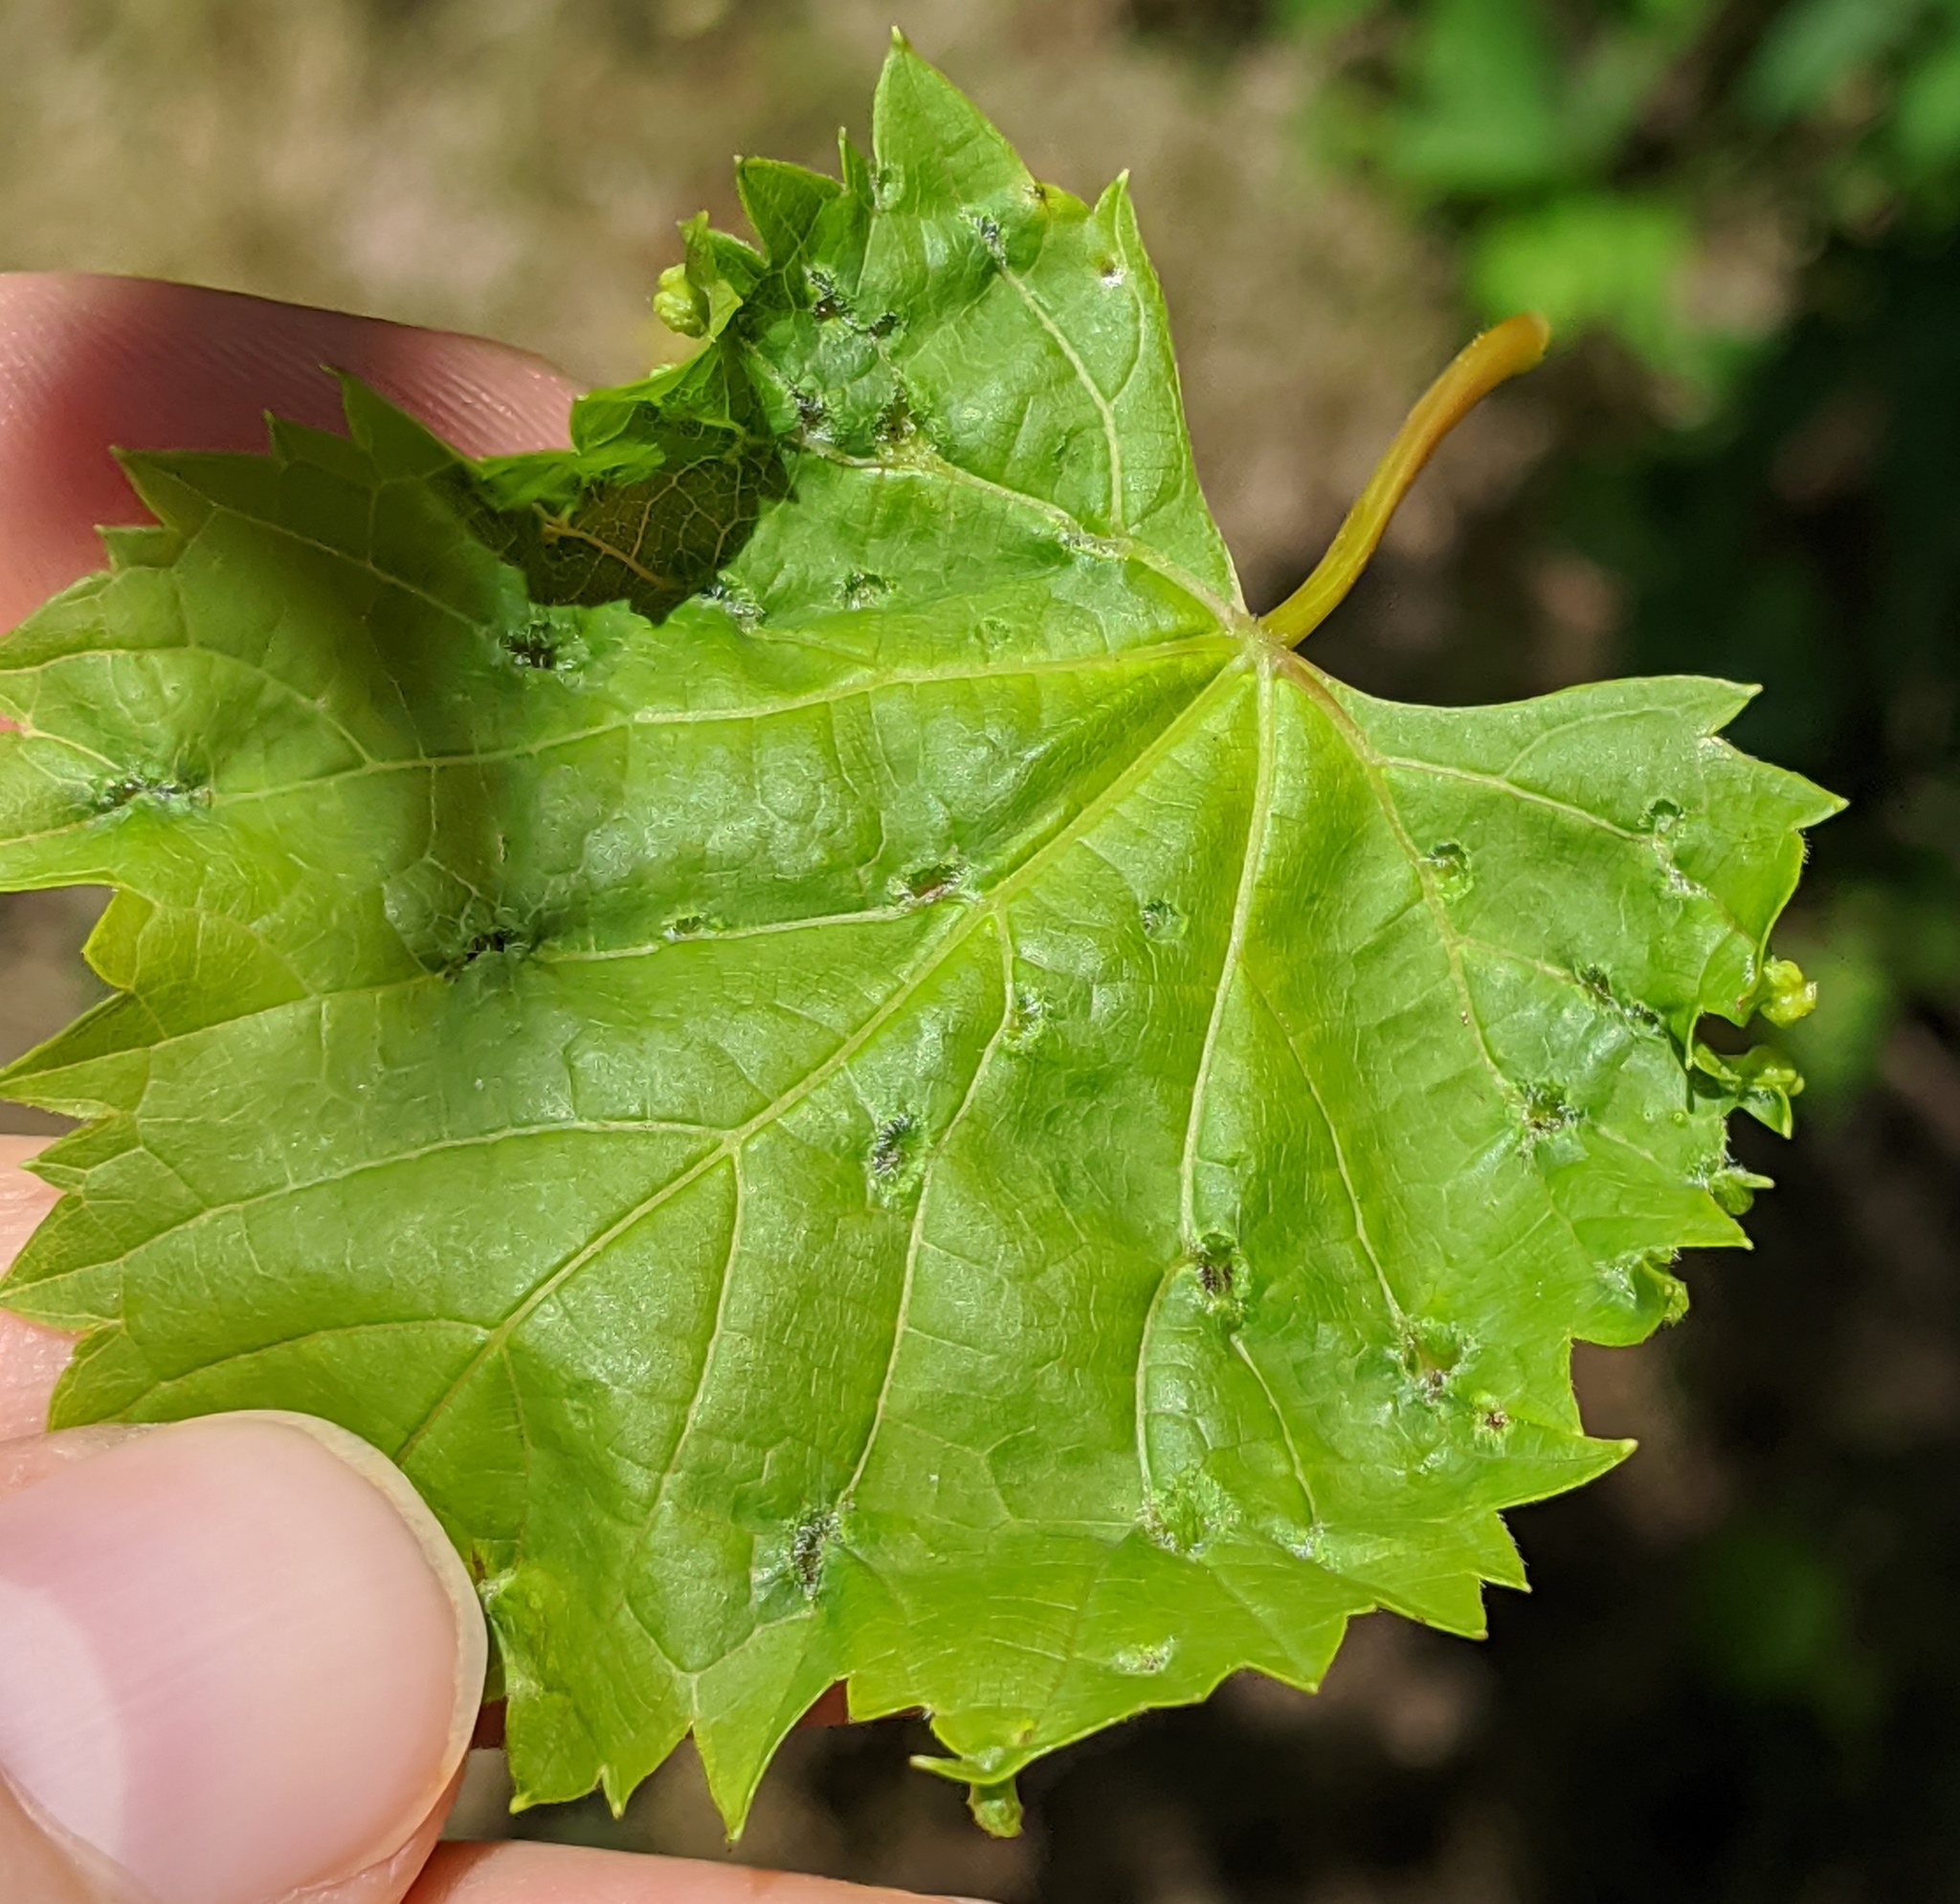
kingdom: Animalia
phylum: Arthropoda
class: Insecta
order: Hemiptera
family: Phylloxeridae
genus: Daktulosphaira
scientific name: Daktulosphaira vitifoliae
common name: Grape phylloxera
